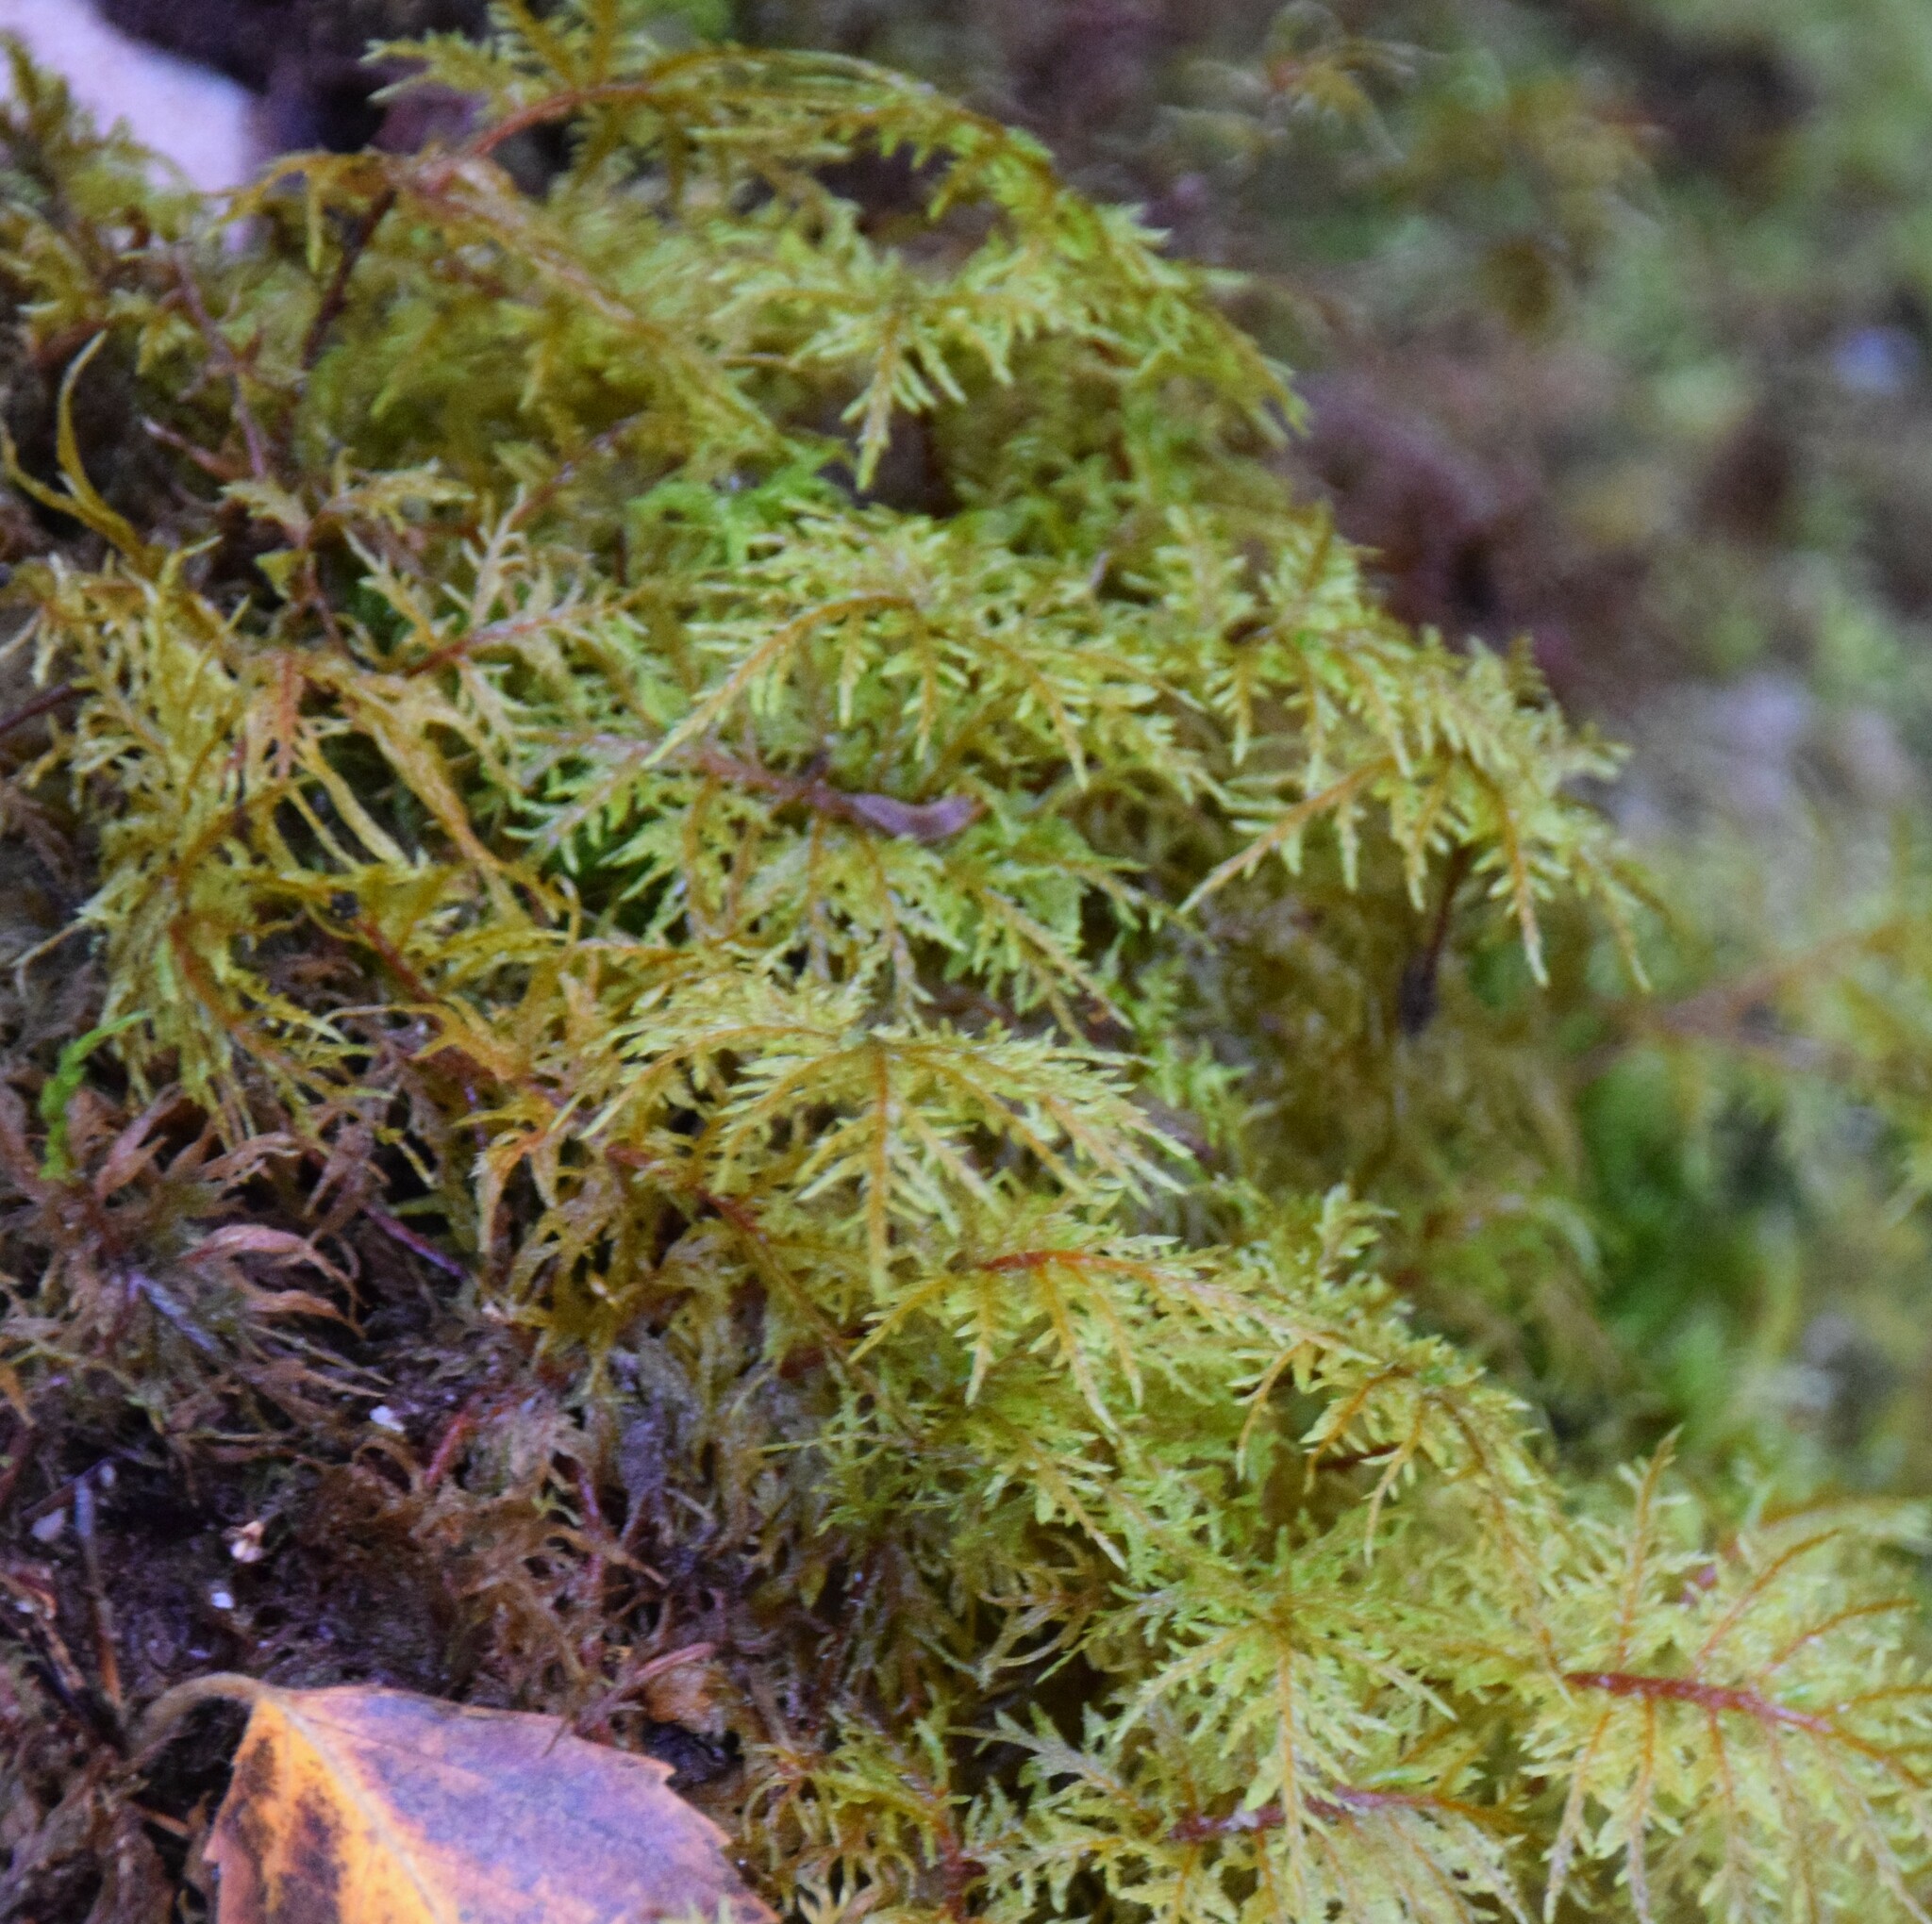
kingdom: Plantae
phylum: Bryophyta
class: Bryopsida
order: Hypnales
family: Hylocomiaceae
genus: Hylocomium
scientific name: Hylocomium splendens
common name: Stairstep moss
